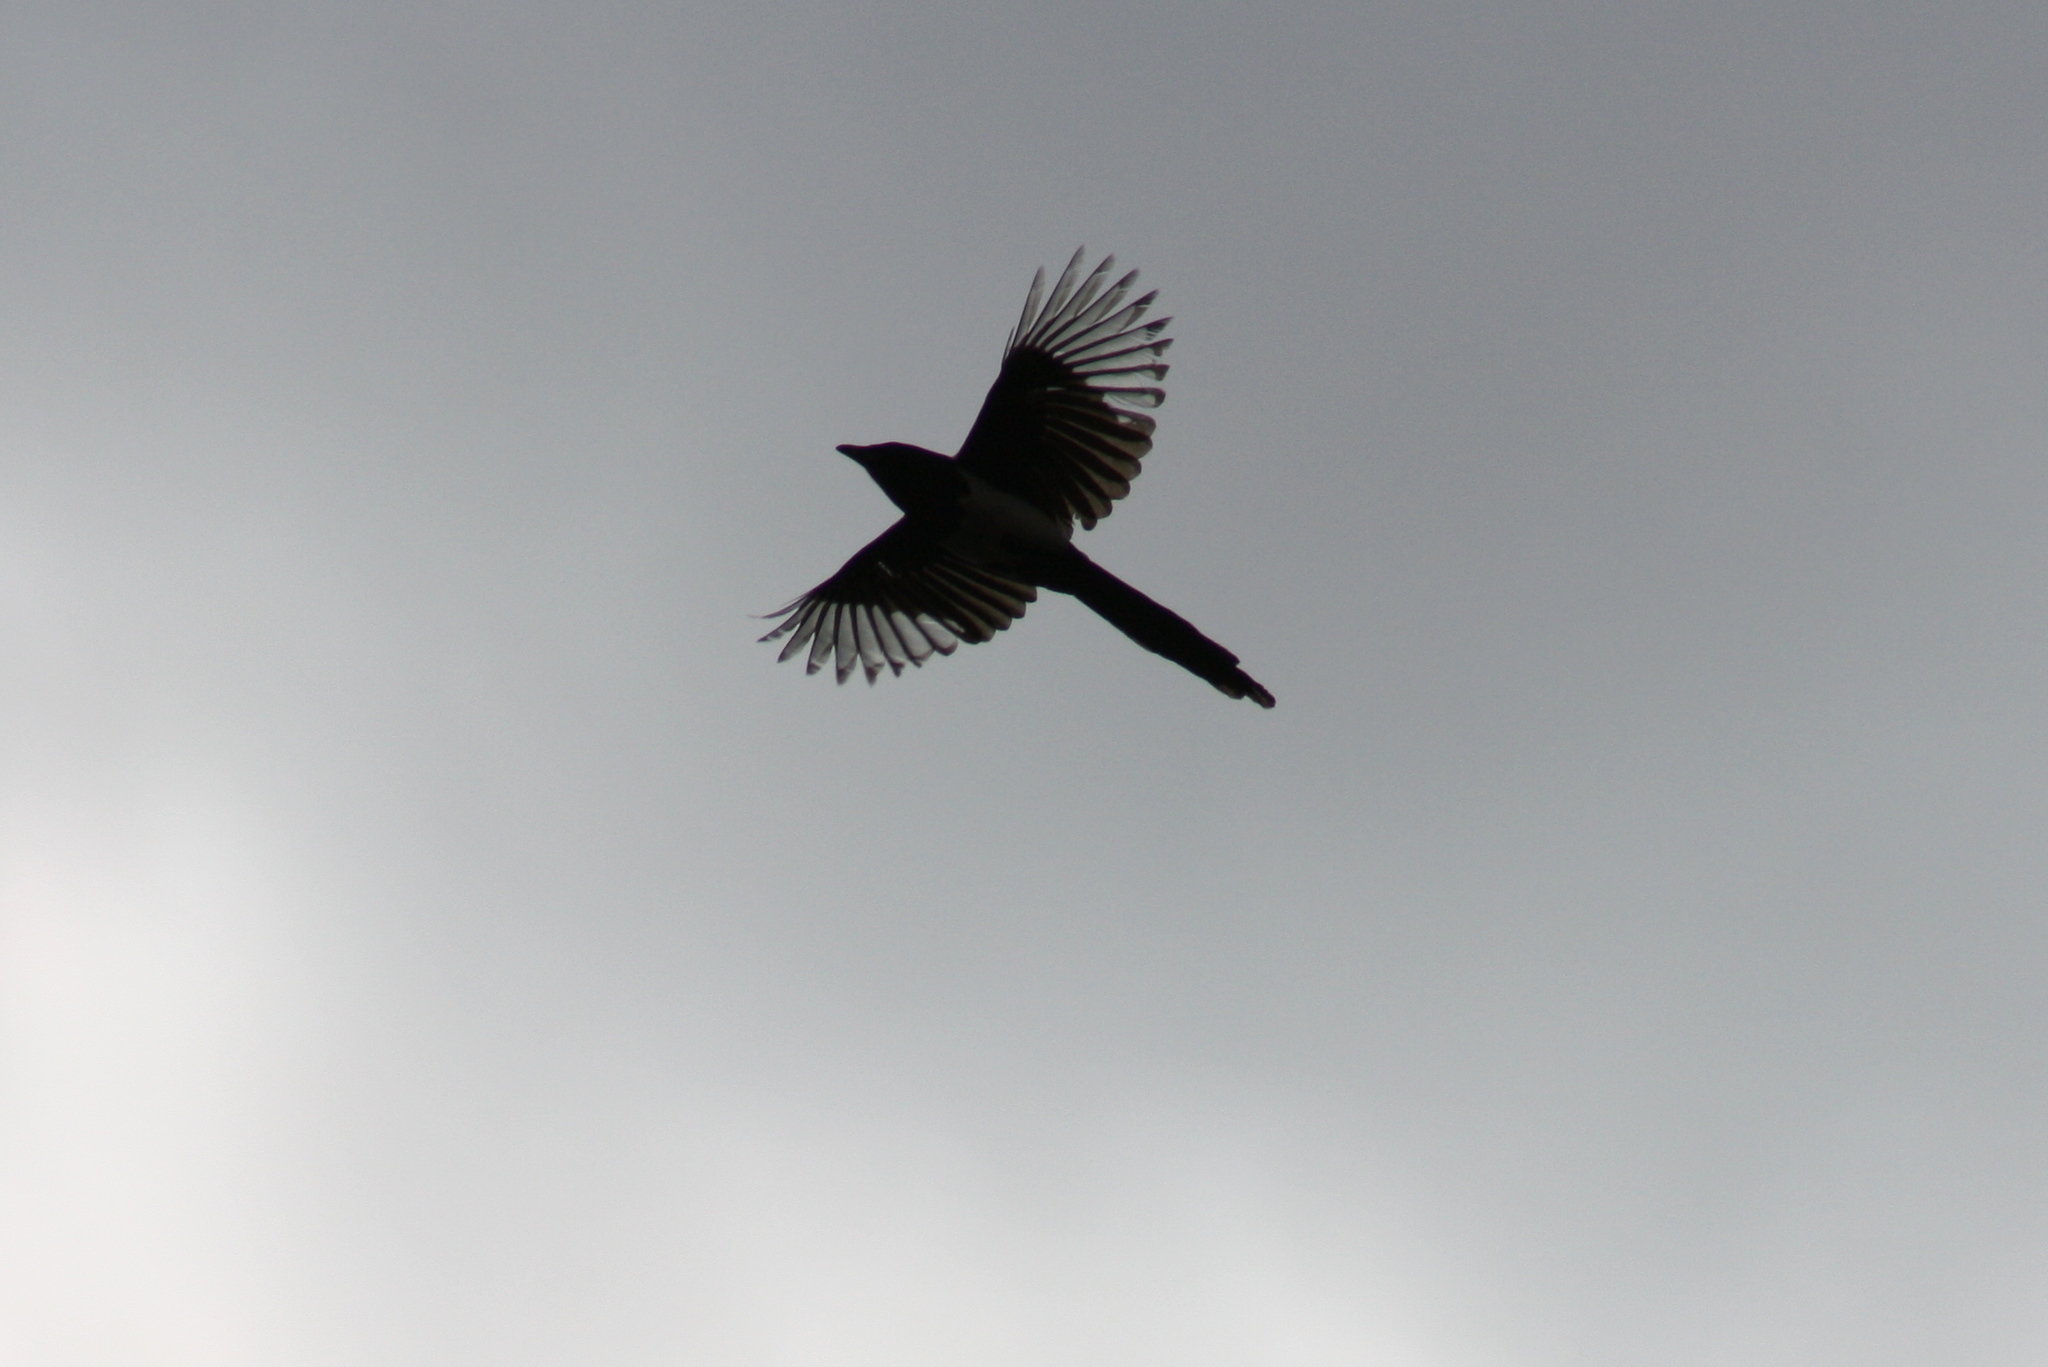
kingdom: Animalia
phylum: Chordata
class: Aves
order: Passeriformes
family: Corvidae
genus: Pica
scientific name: Pica pica
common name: Eurasian magpie
